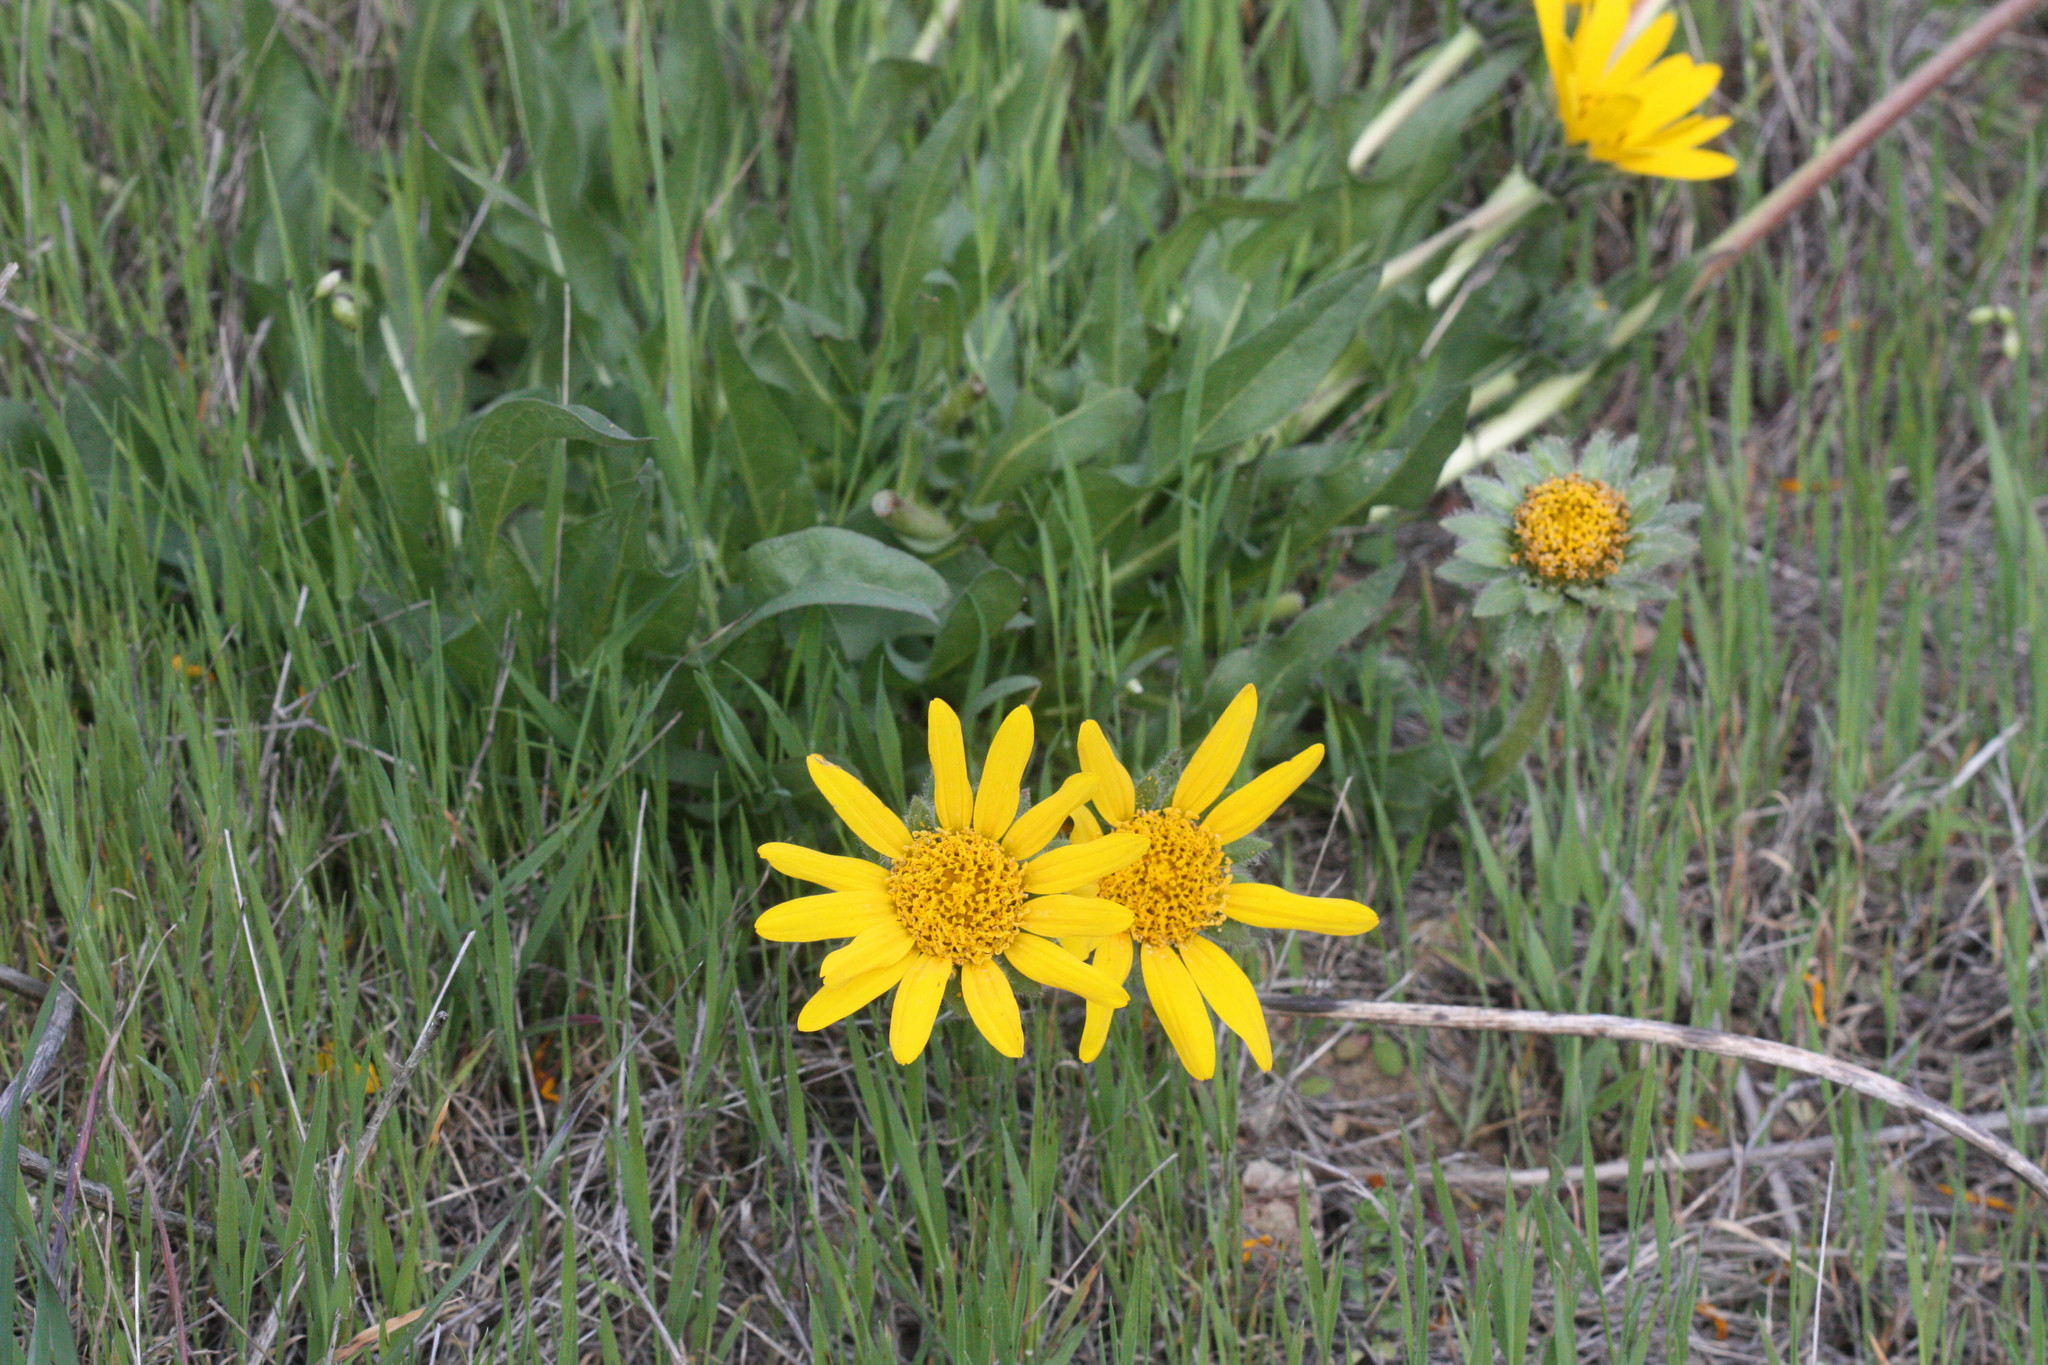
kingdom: Plantae
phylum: Tracheophyta
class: Magnoliopsida
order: Asterales
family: Asteraceae
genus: Wyethia
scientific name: Wyethia angustifolia
